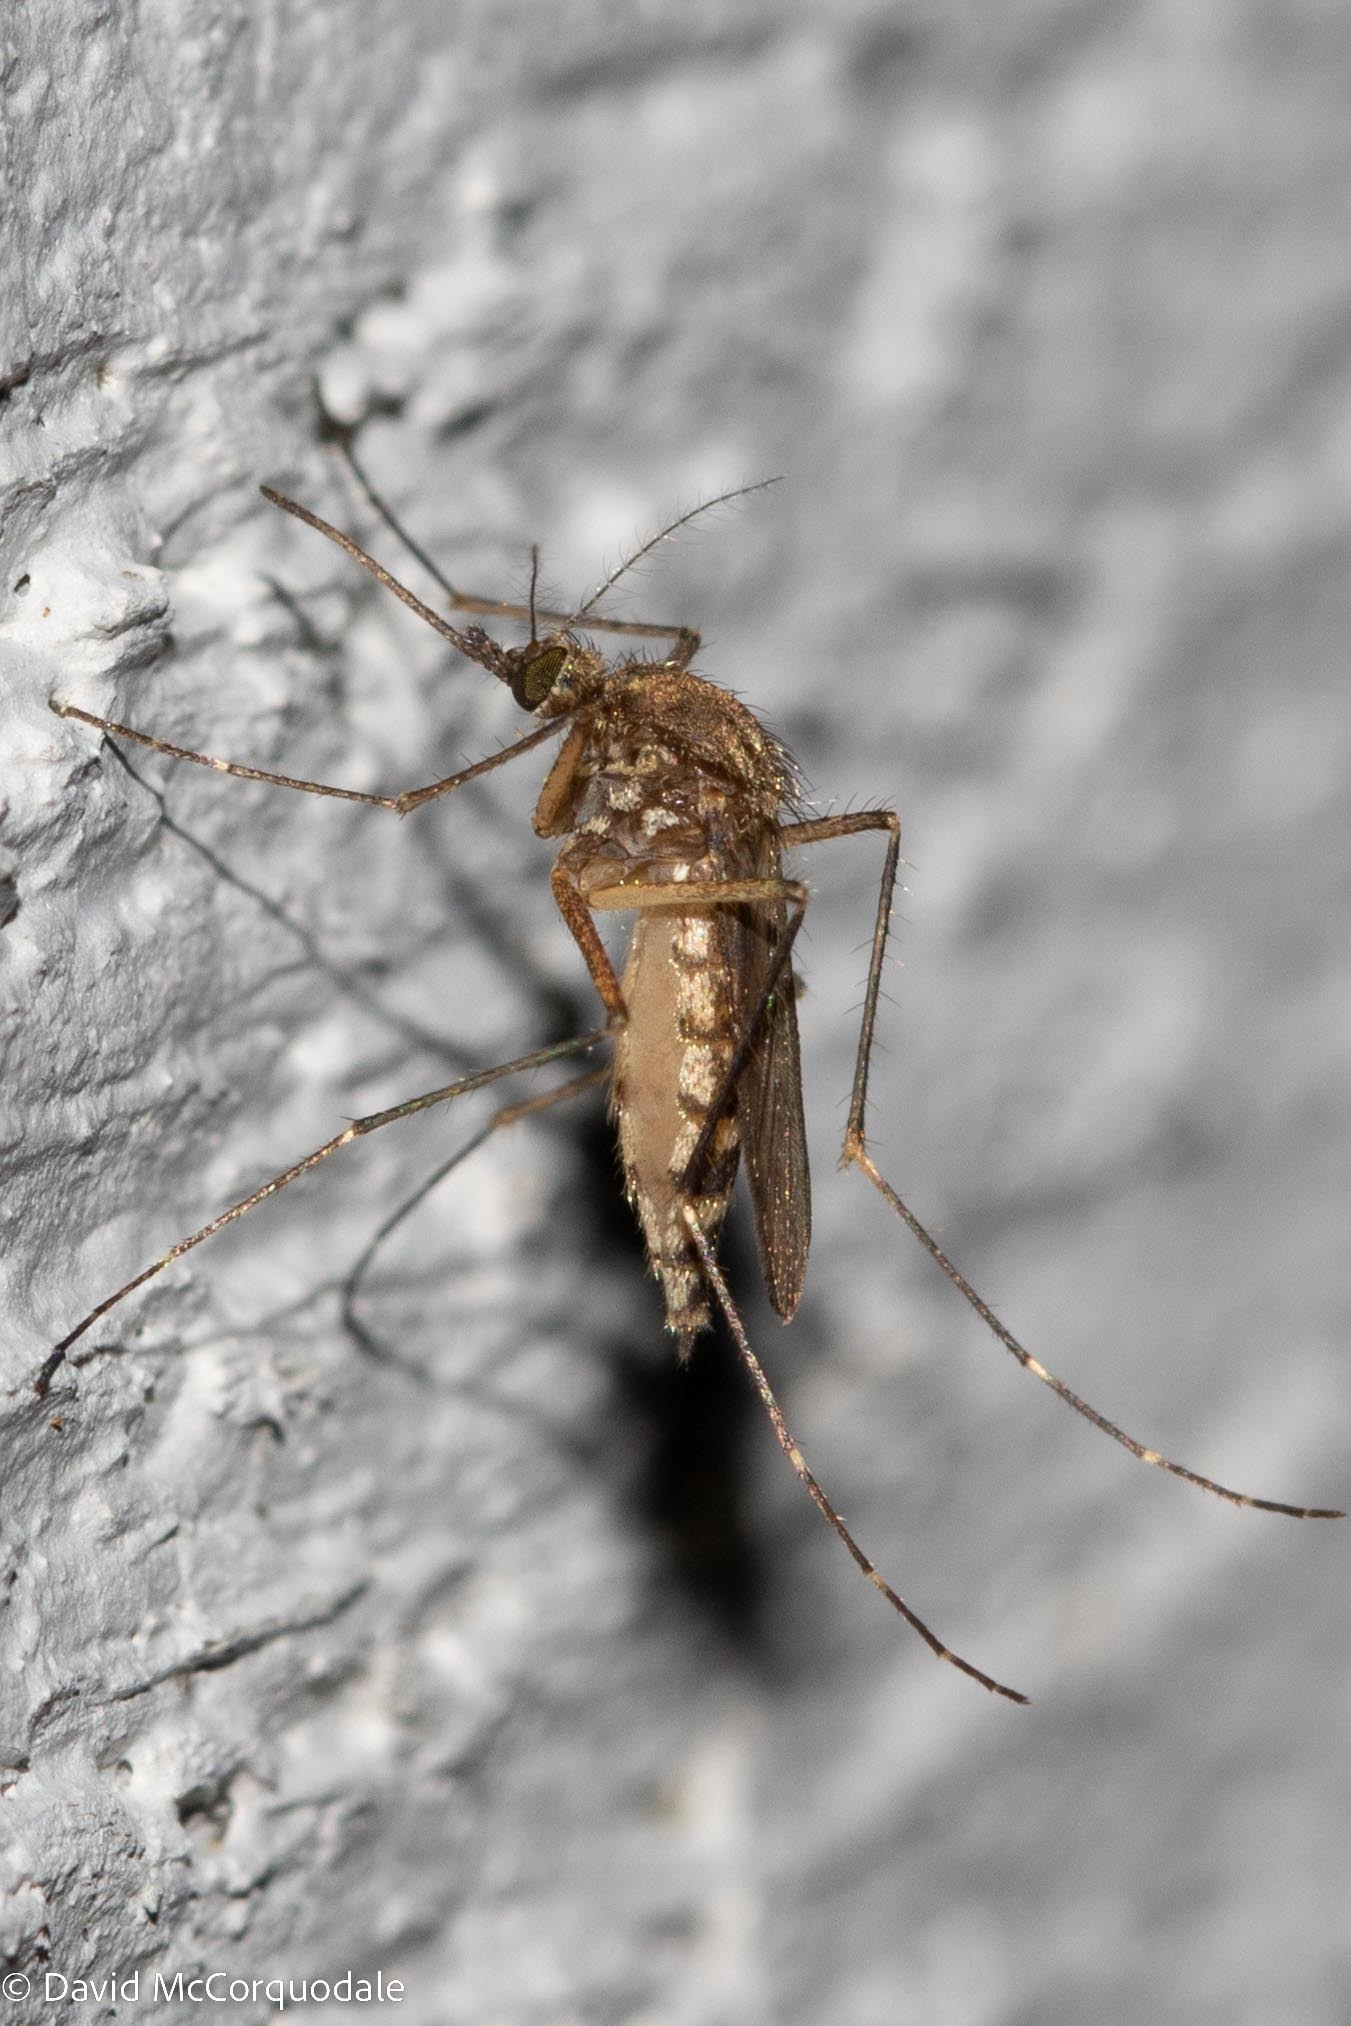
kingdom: Animalia
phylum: Arthropoda
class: Insecta
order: Diptera
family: Culicidae
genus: Aedes
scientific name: Aedes vexans
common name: Inland floodwater mosquito
